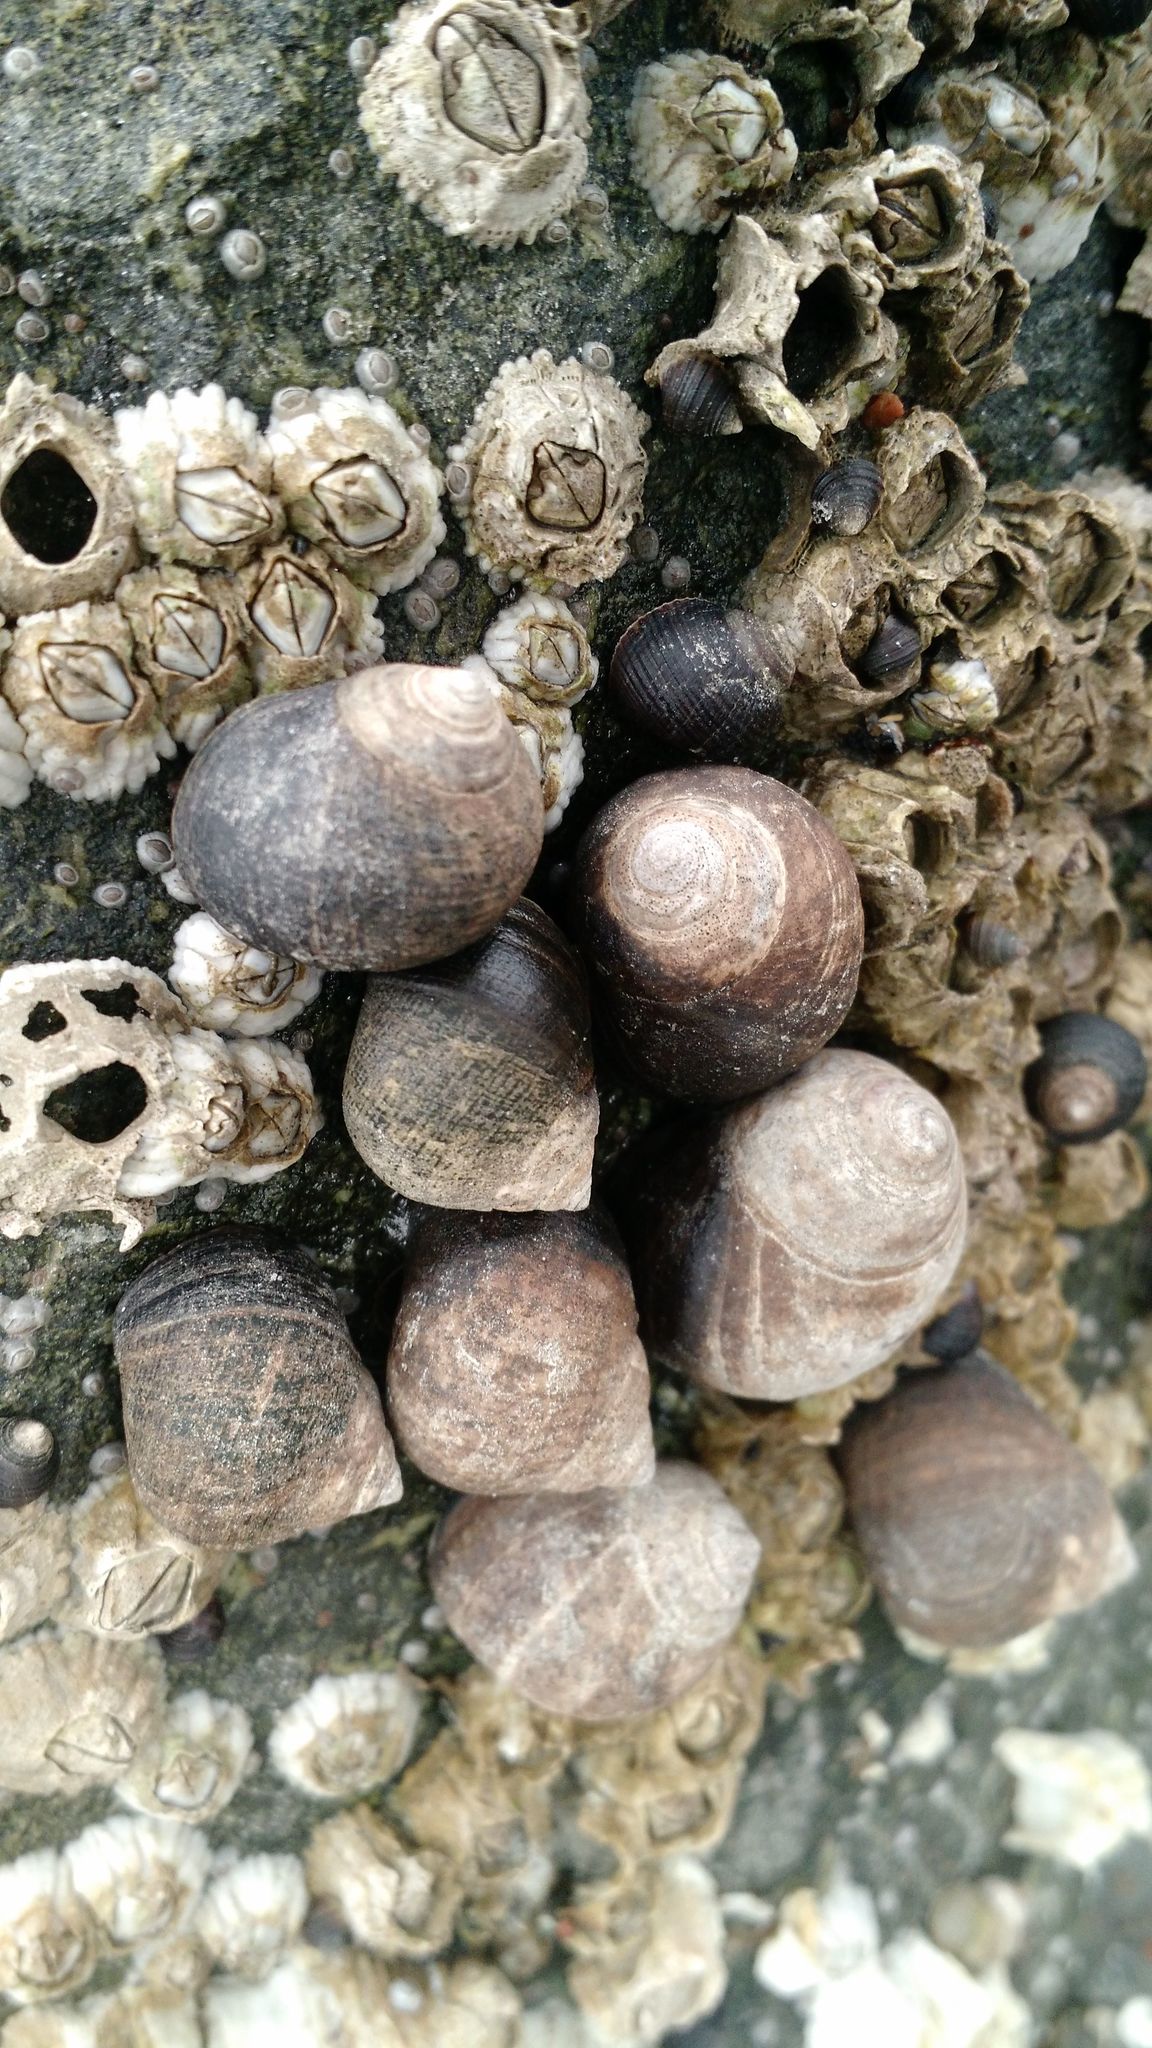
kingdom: Animalia
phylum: Mollusca
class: Gastropoda
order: Littorinimorpha
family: Littorinidae
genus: Littorina
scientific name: Littorina littorea
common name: Common periwinkle
